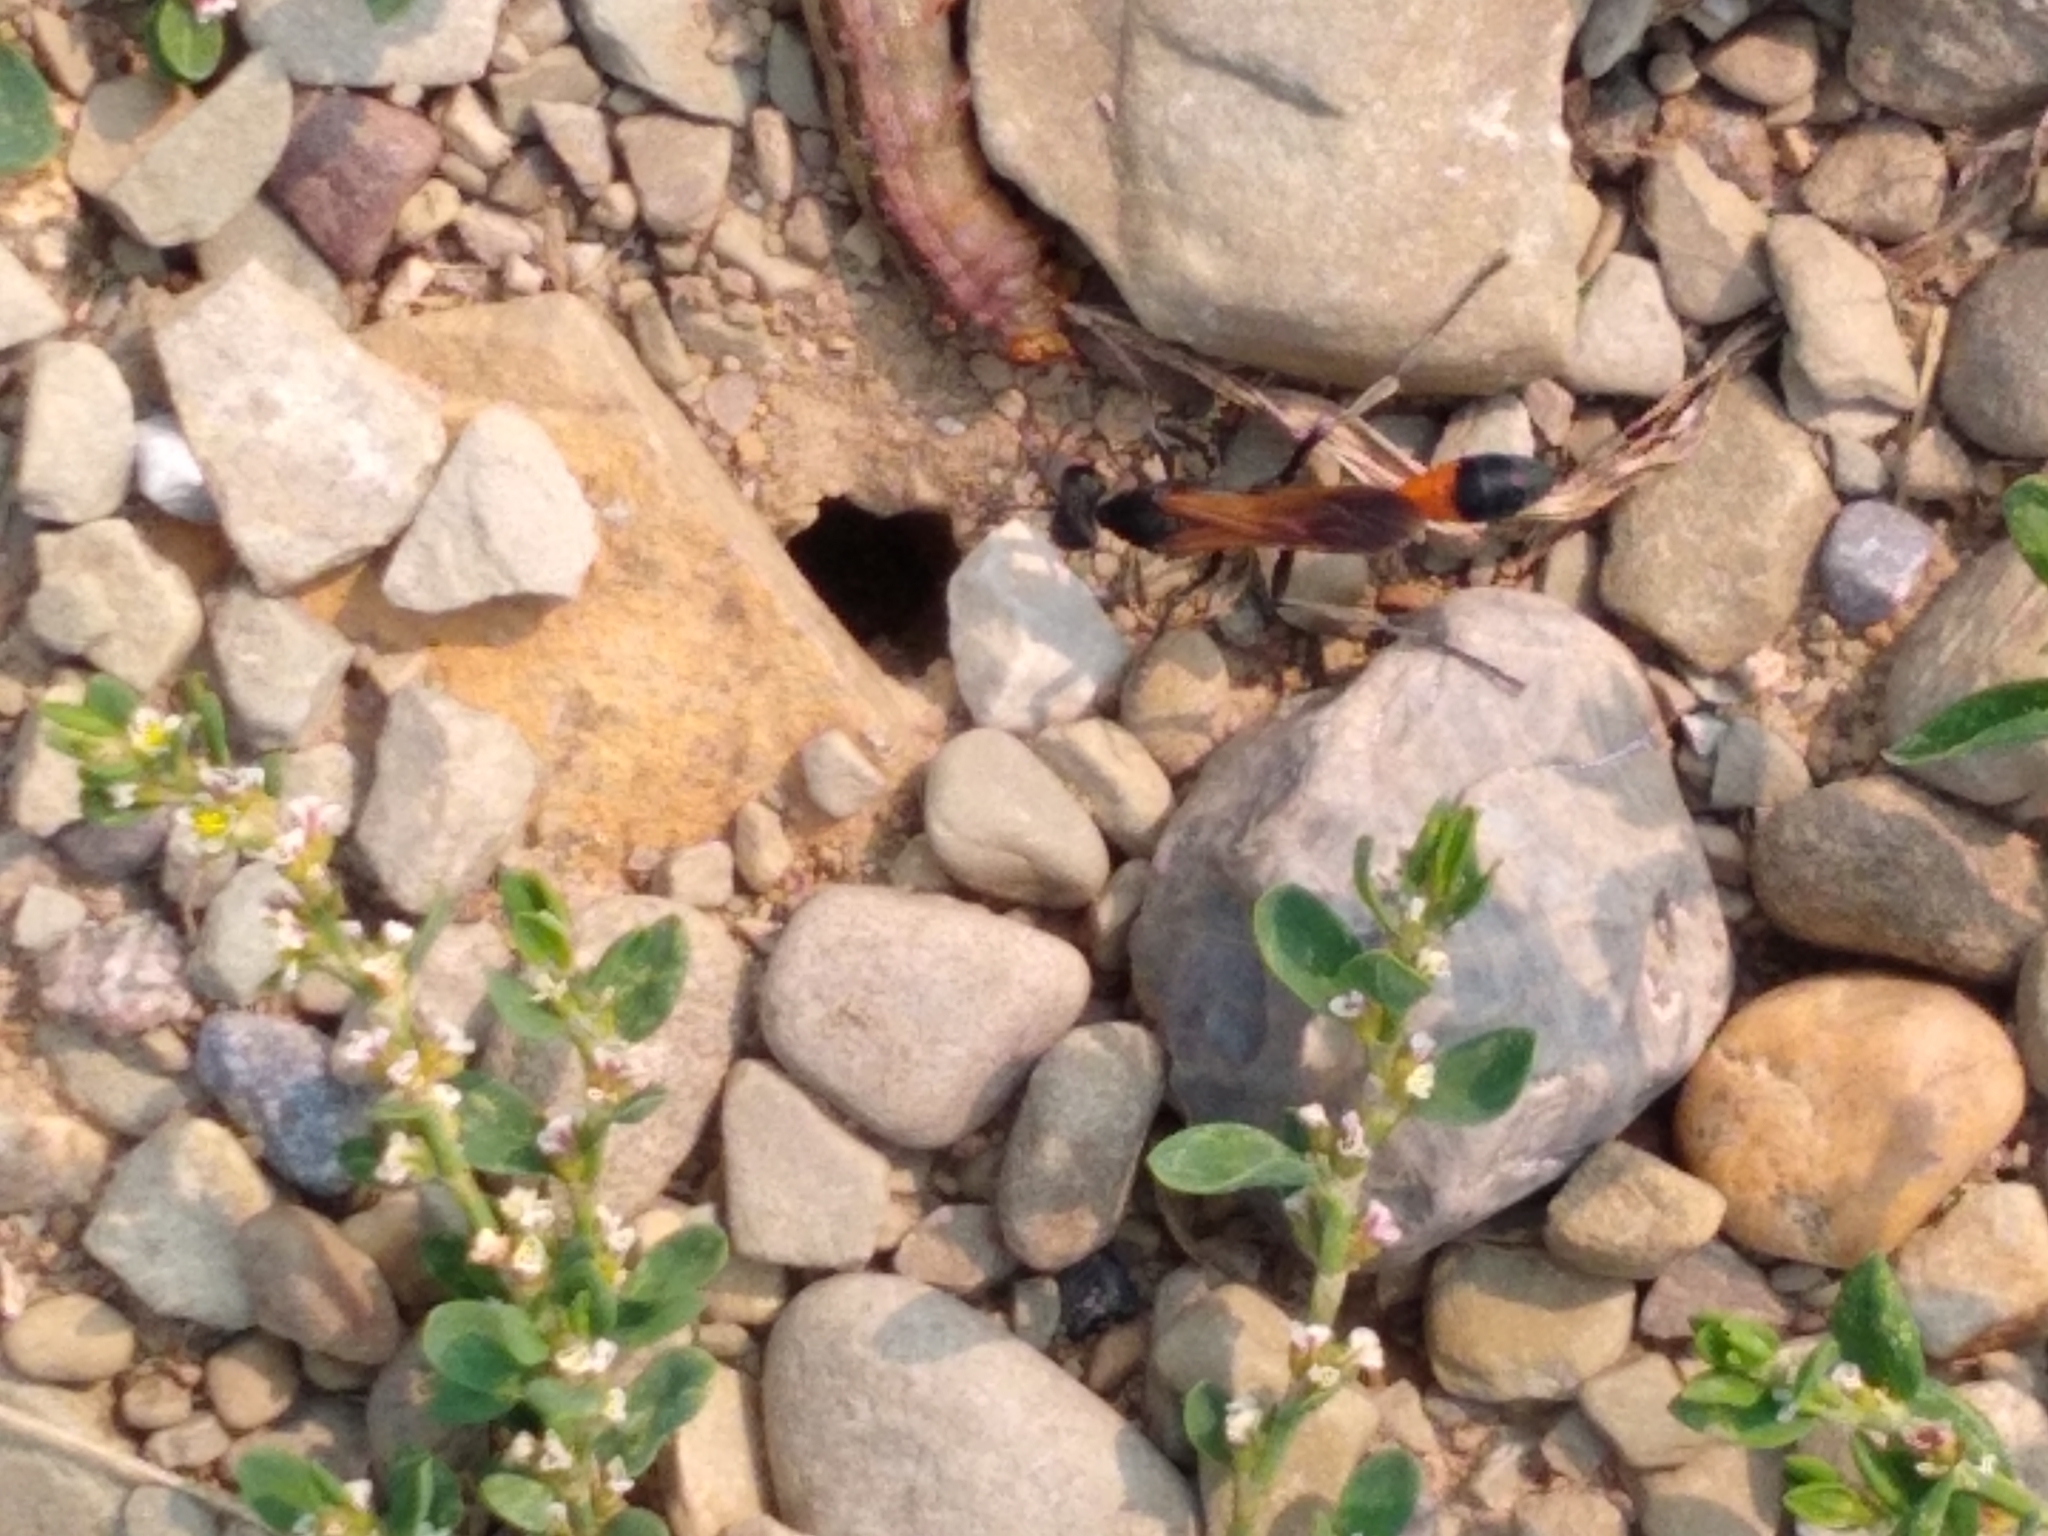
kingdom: Animalia
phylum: Arthropoda
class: Insecta
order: Hymenoptera
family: Sphecidae
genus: Ammophila
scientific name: Ammophila pictipennis
